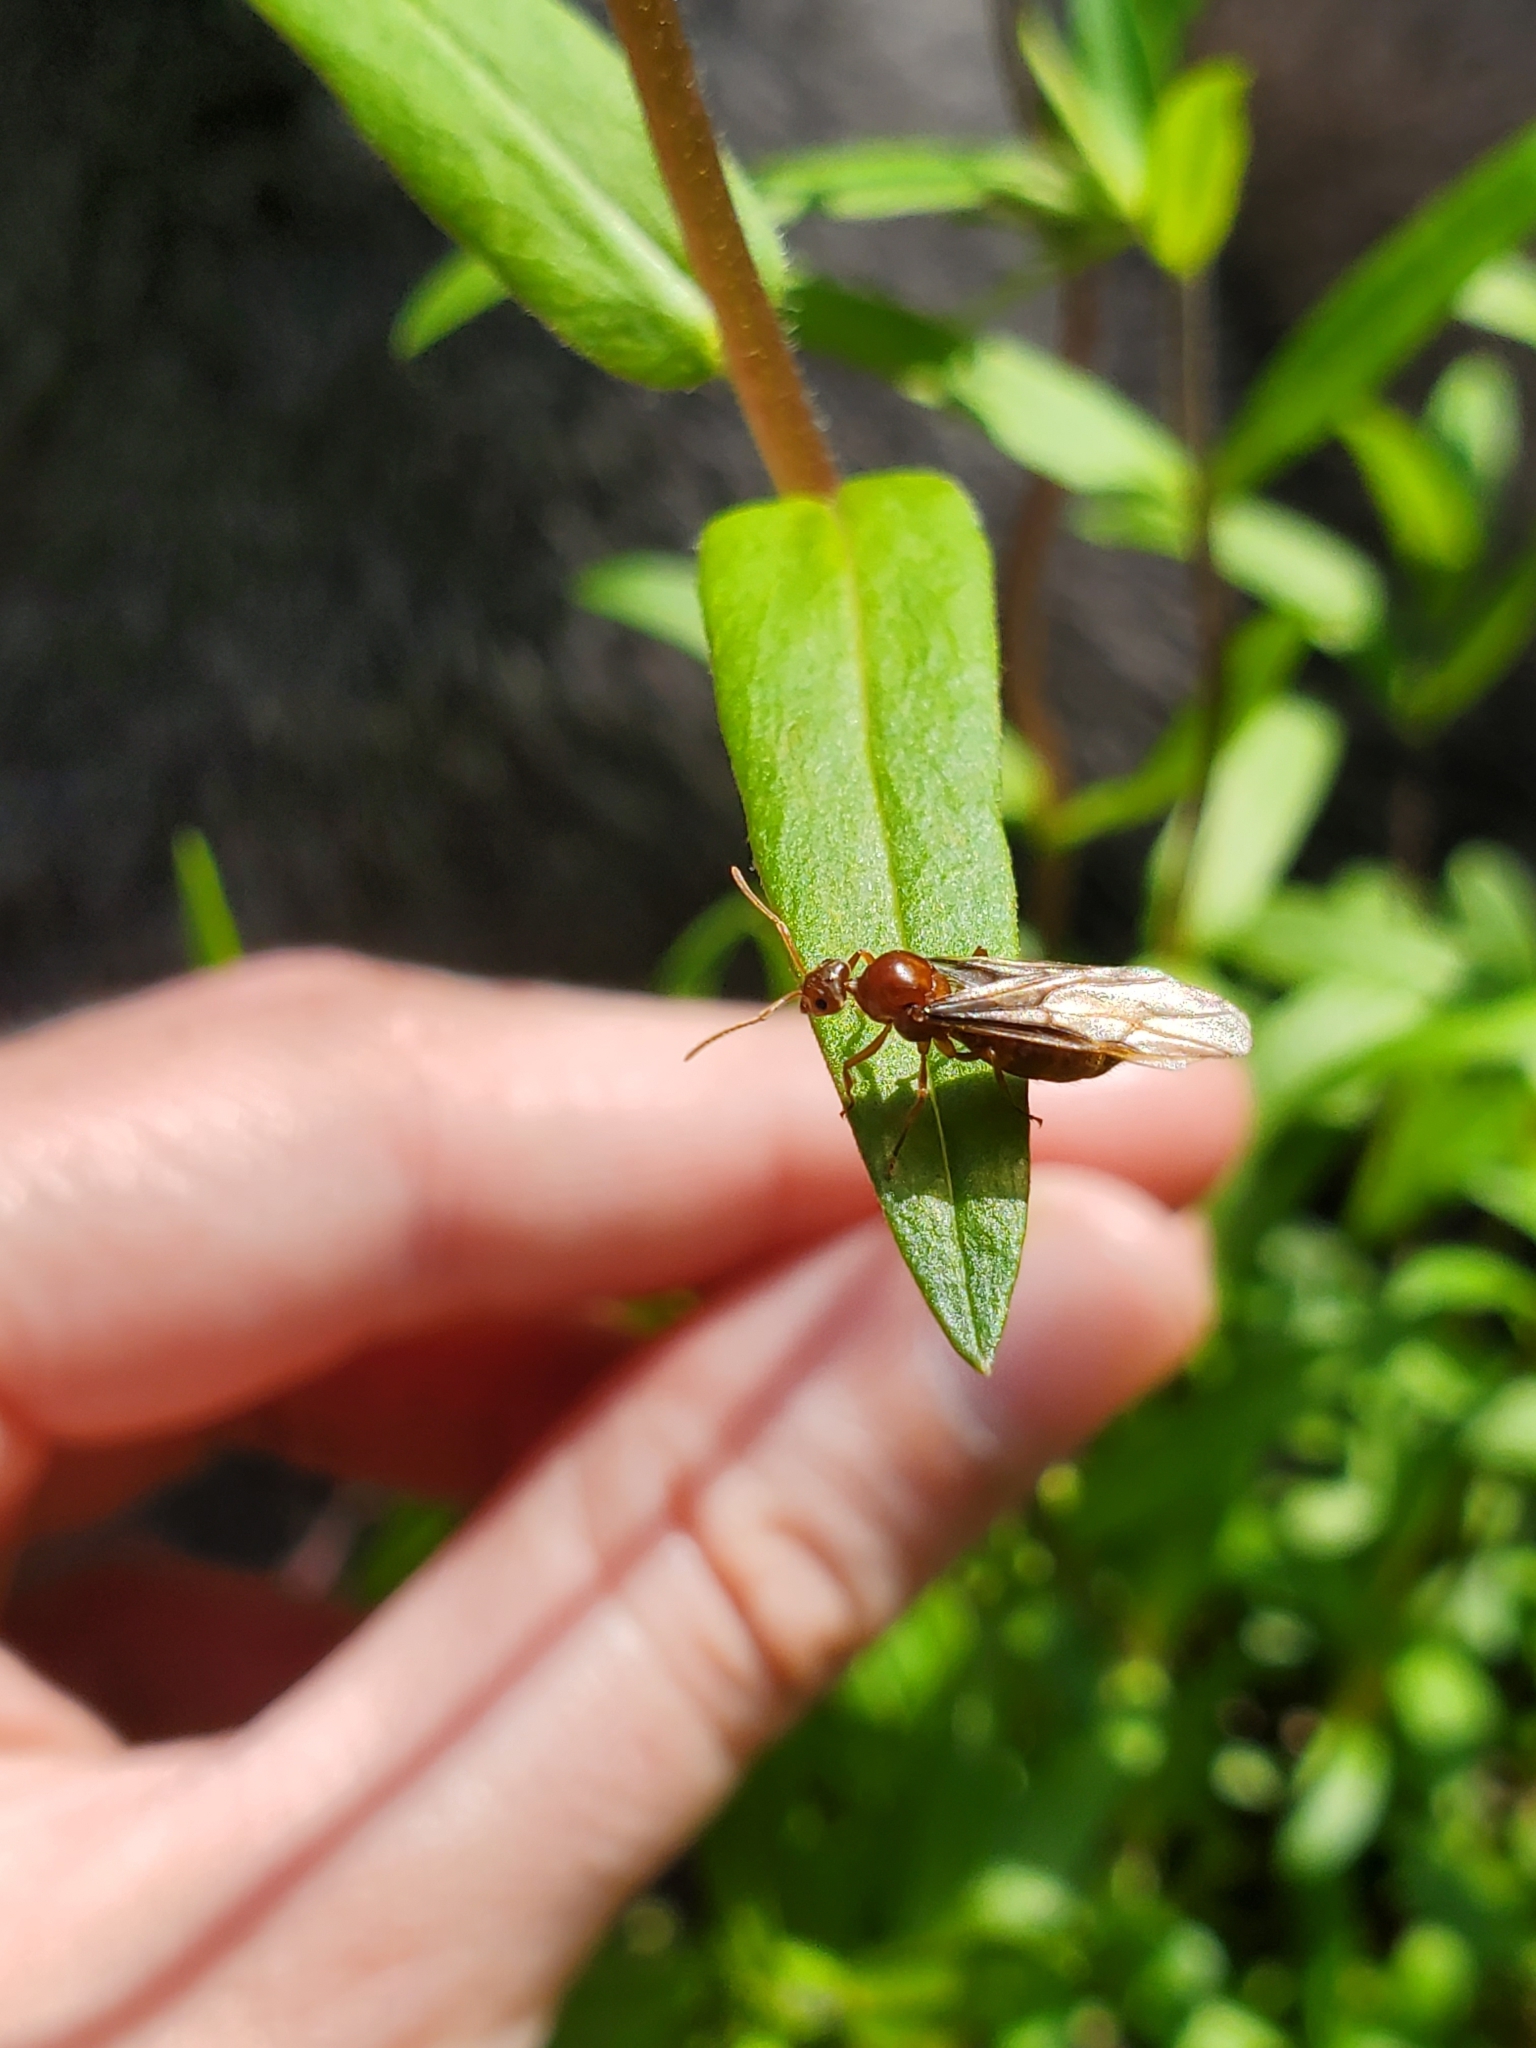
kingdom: Animalia
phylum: Arthropoda
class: Insecta
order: Hymenoptera
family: Formicidae
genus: Prenolepis
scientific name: Prenolepis imparis
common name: Small honey ant
